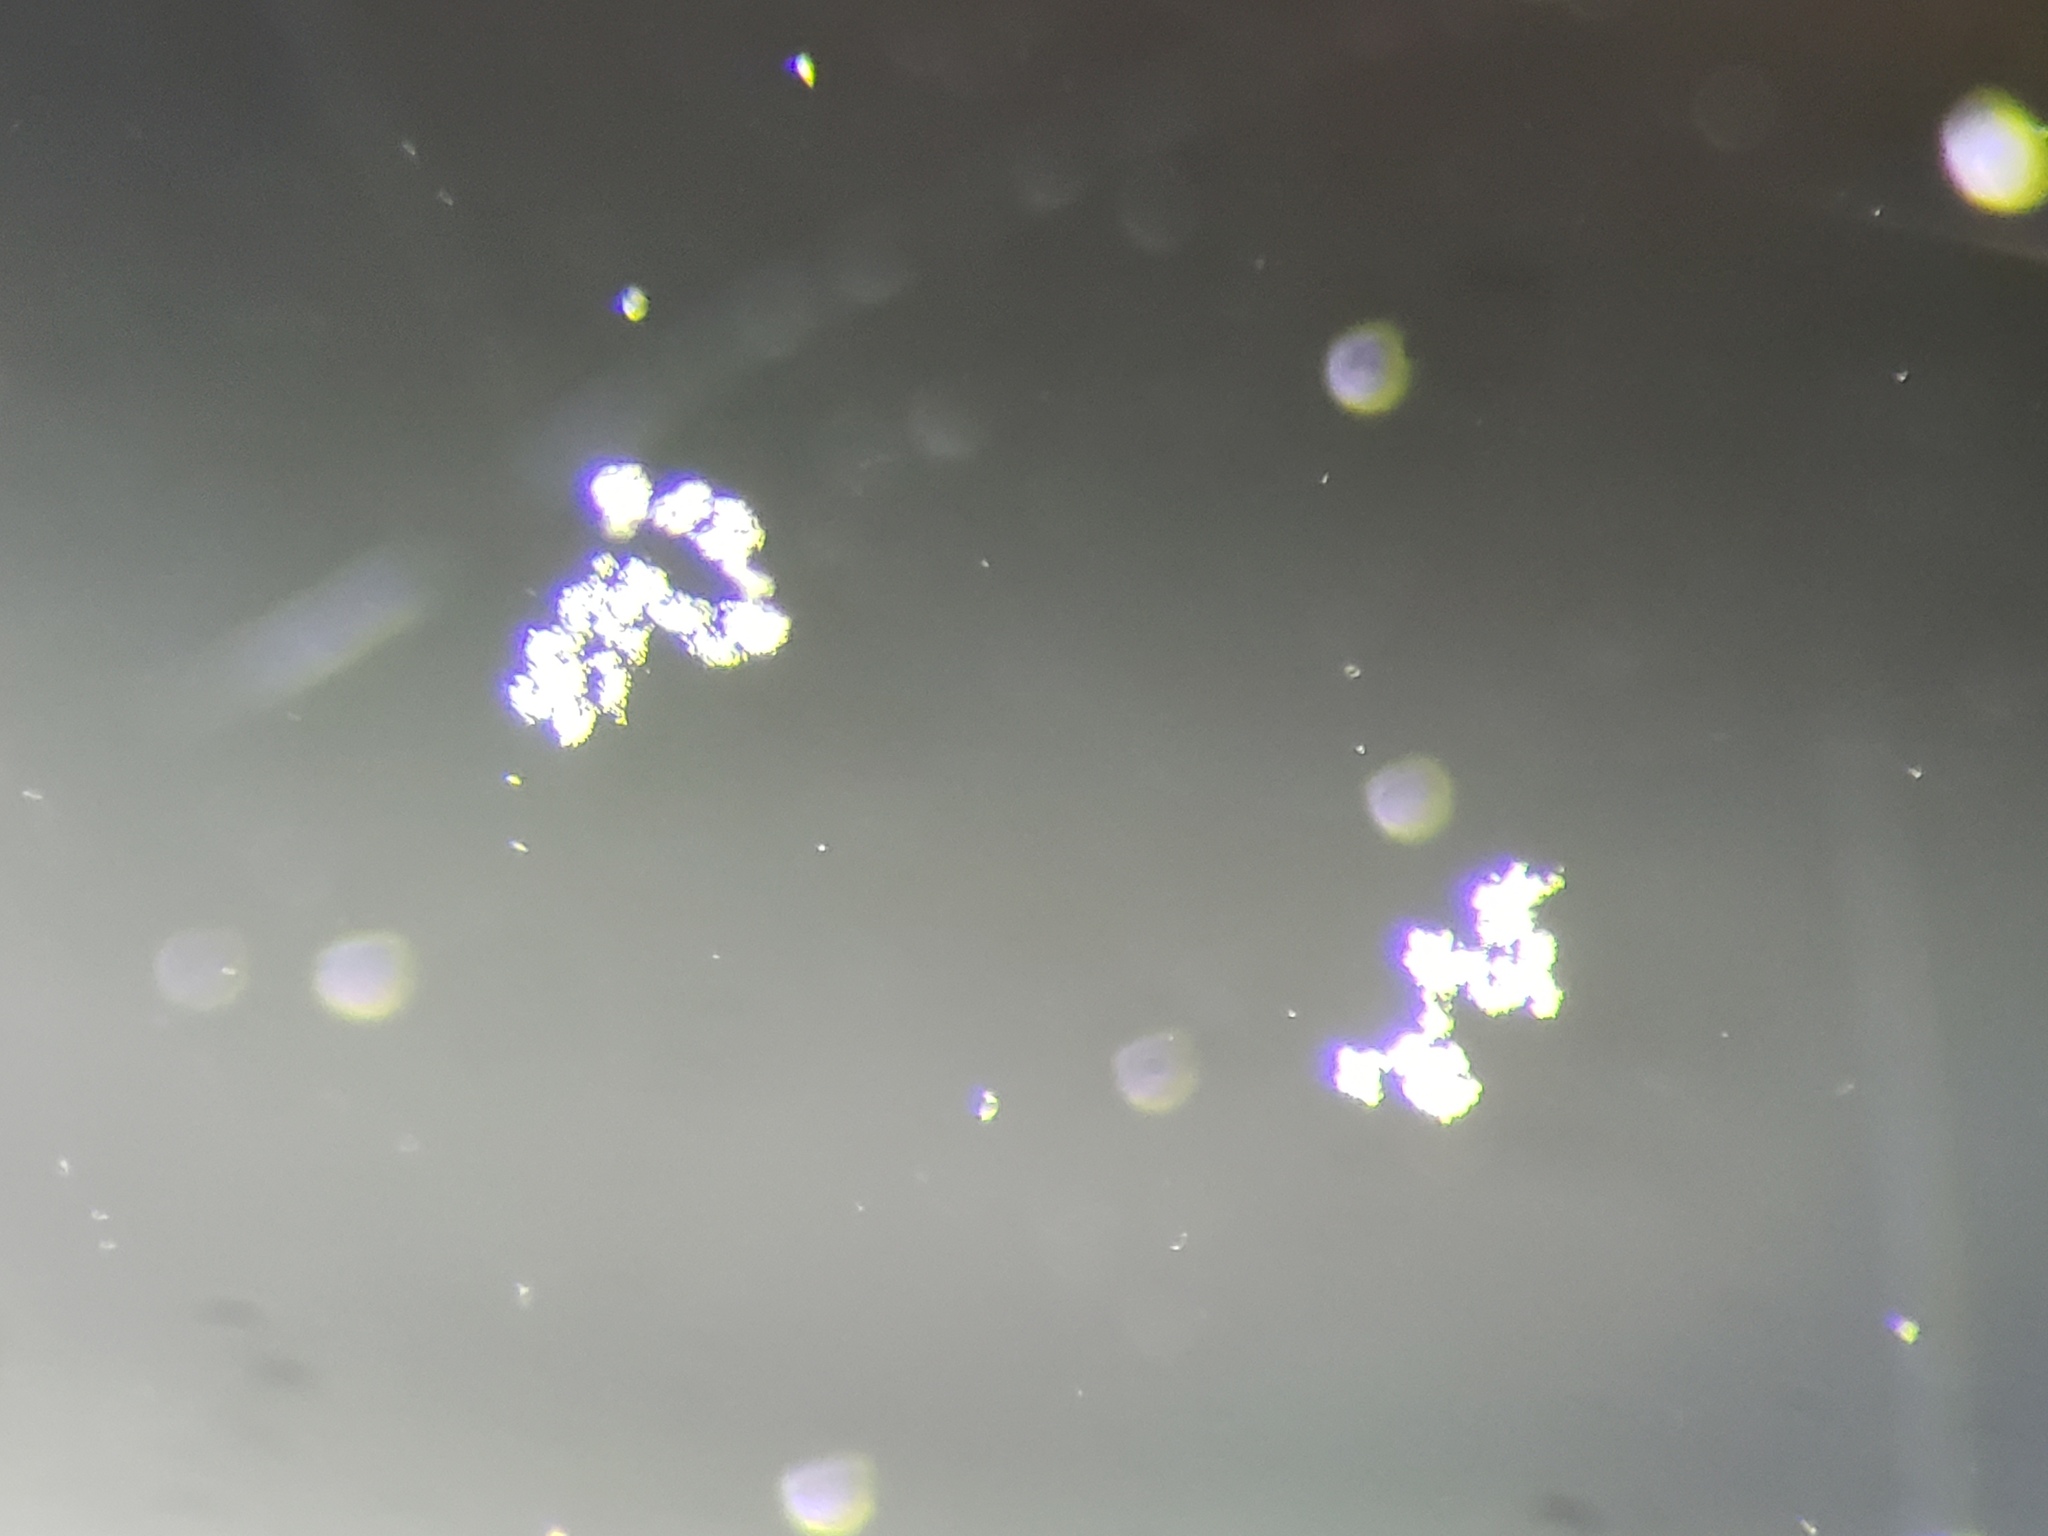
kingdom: Plantae
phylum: Tracheophyta
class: Magnoliopsida
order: Malpighiales
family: Euphorbiaceae
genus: Euphorbia
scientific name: Euphorbia graminea
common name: Grassleaf spurge
